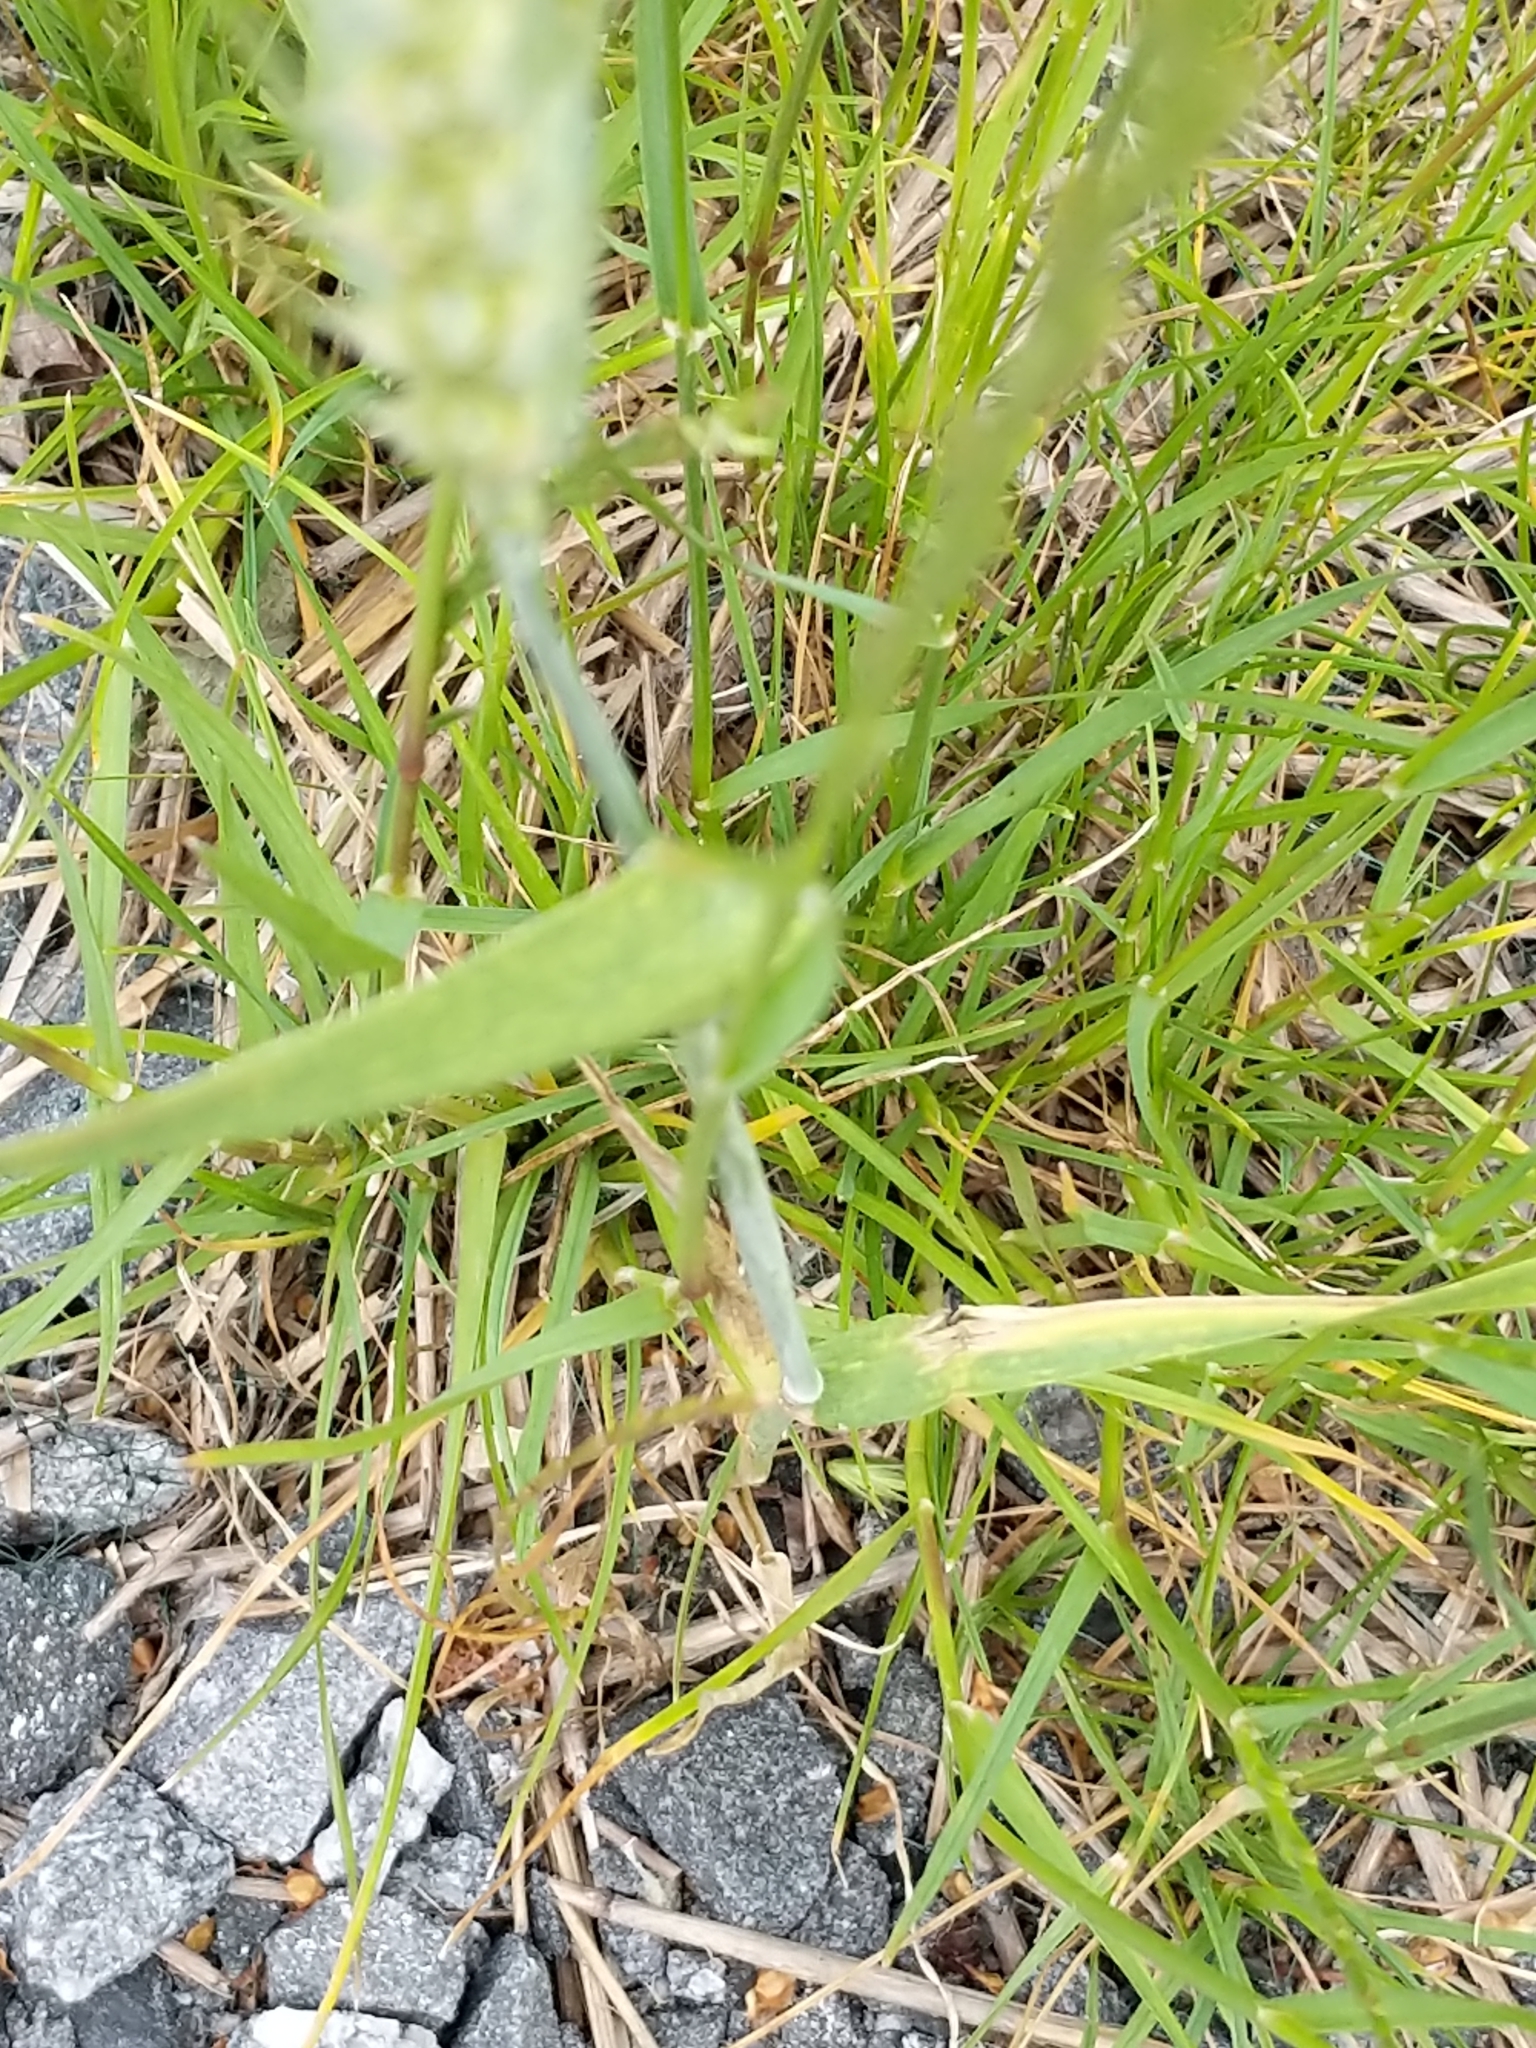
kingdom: Plantae
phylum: Tracheophyta
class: Liliopsida
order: Poales
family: Poaceae
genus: Triticum
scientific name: Triticum aestivum
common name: Common wheat
